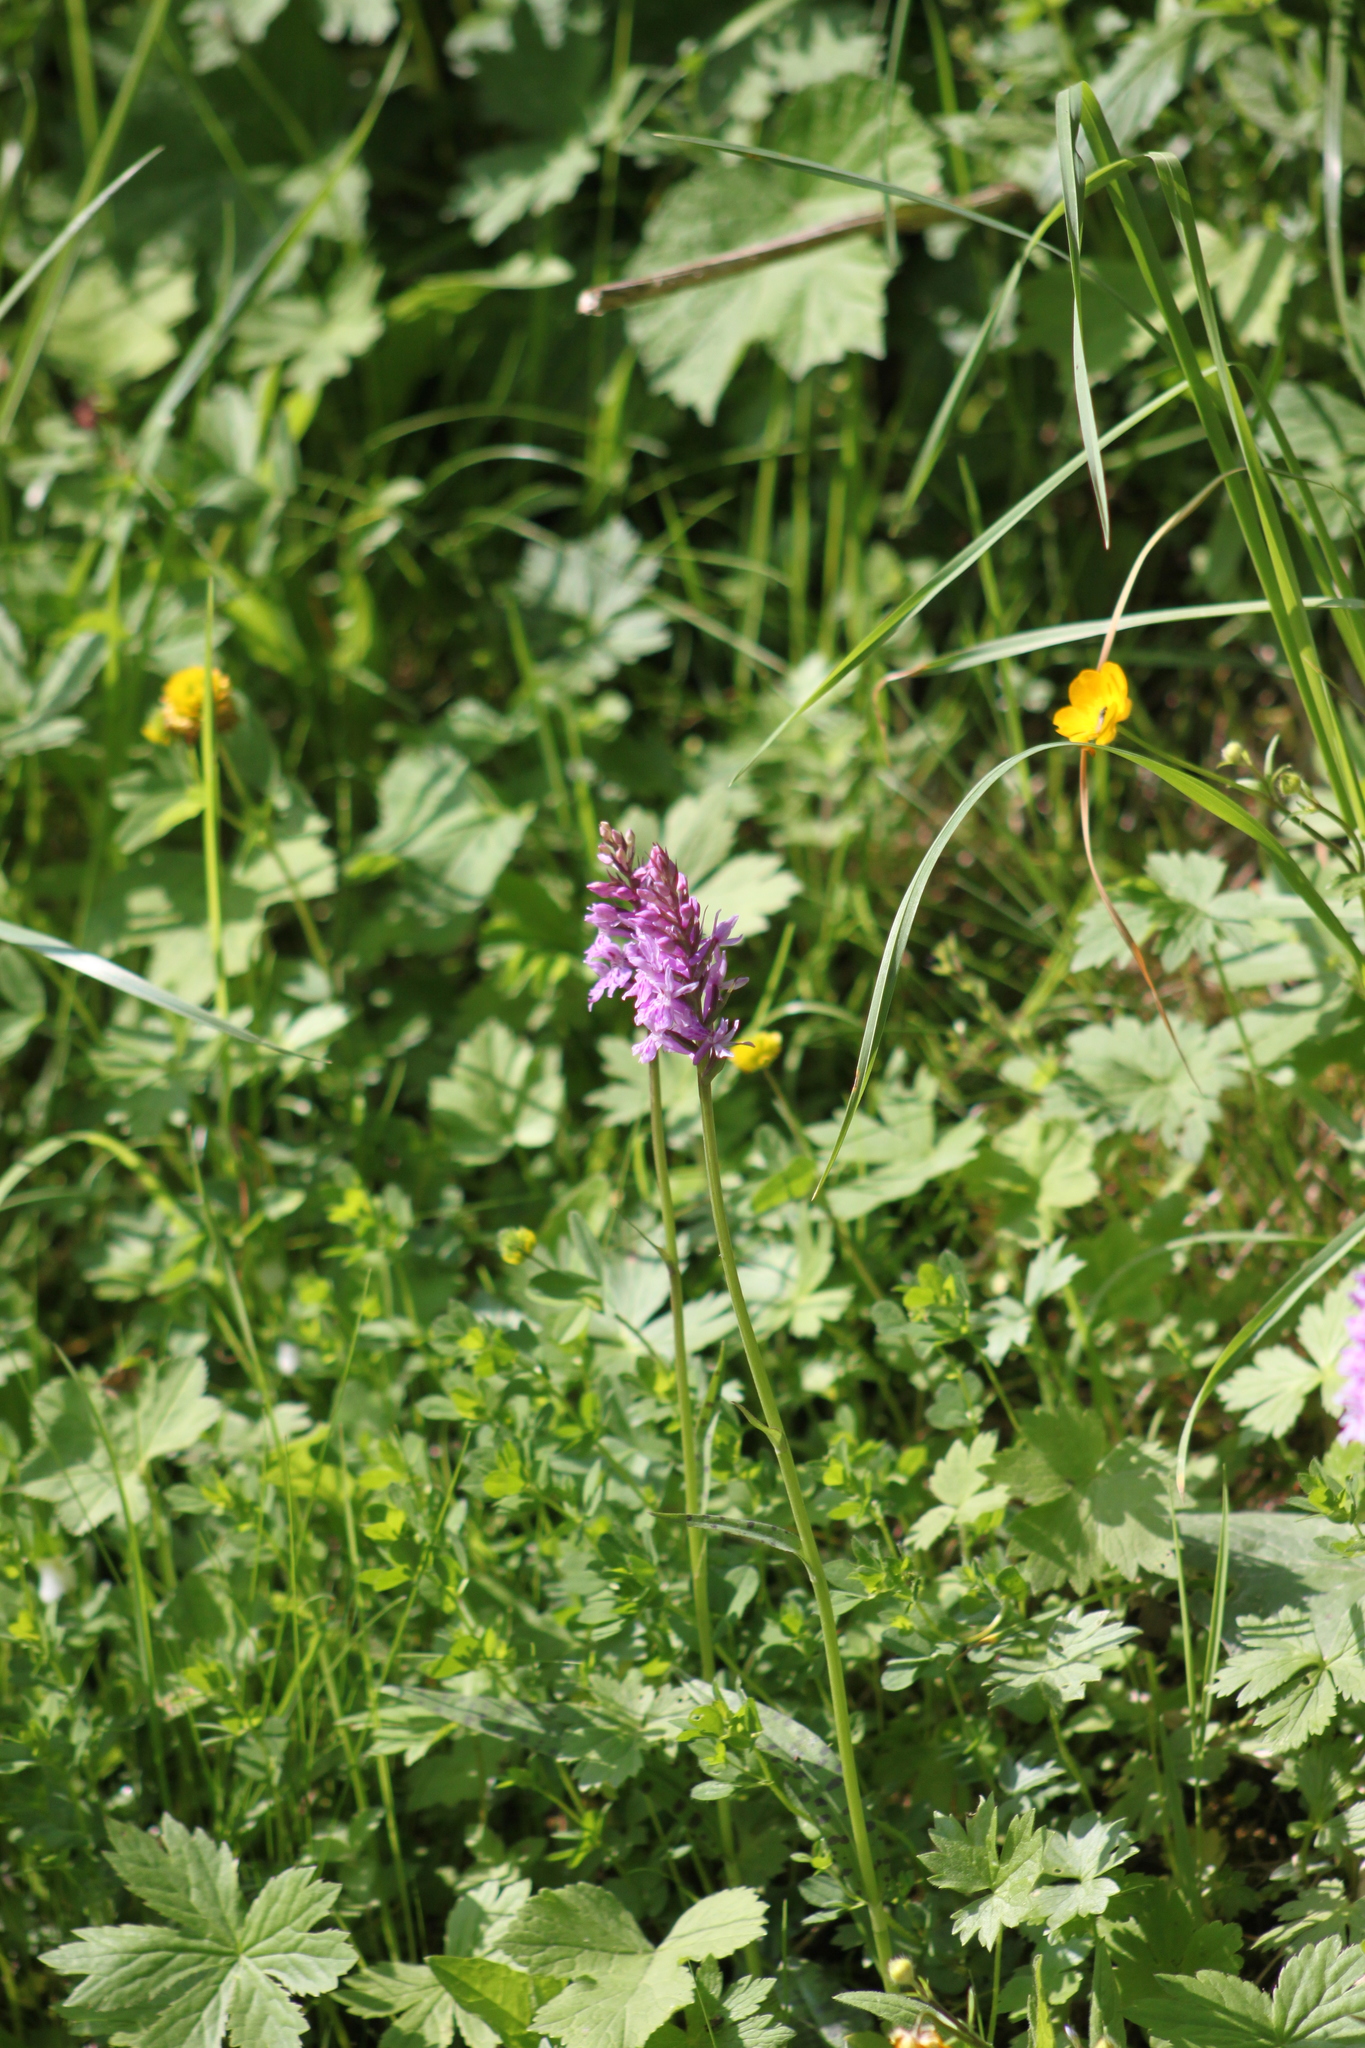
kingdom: Plantae
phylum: Tracheophyta
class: Liliopsida
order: Asparagales
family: Orchidaceae
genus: Dactylorhiza
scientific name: Dactylorhiza maculata
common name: Heath spotted-orchid
